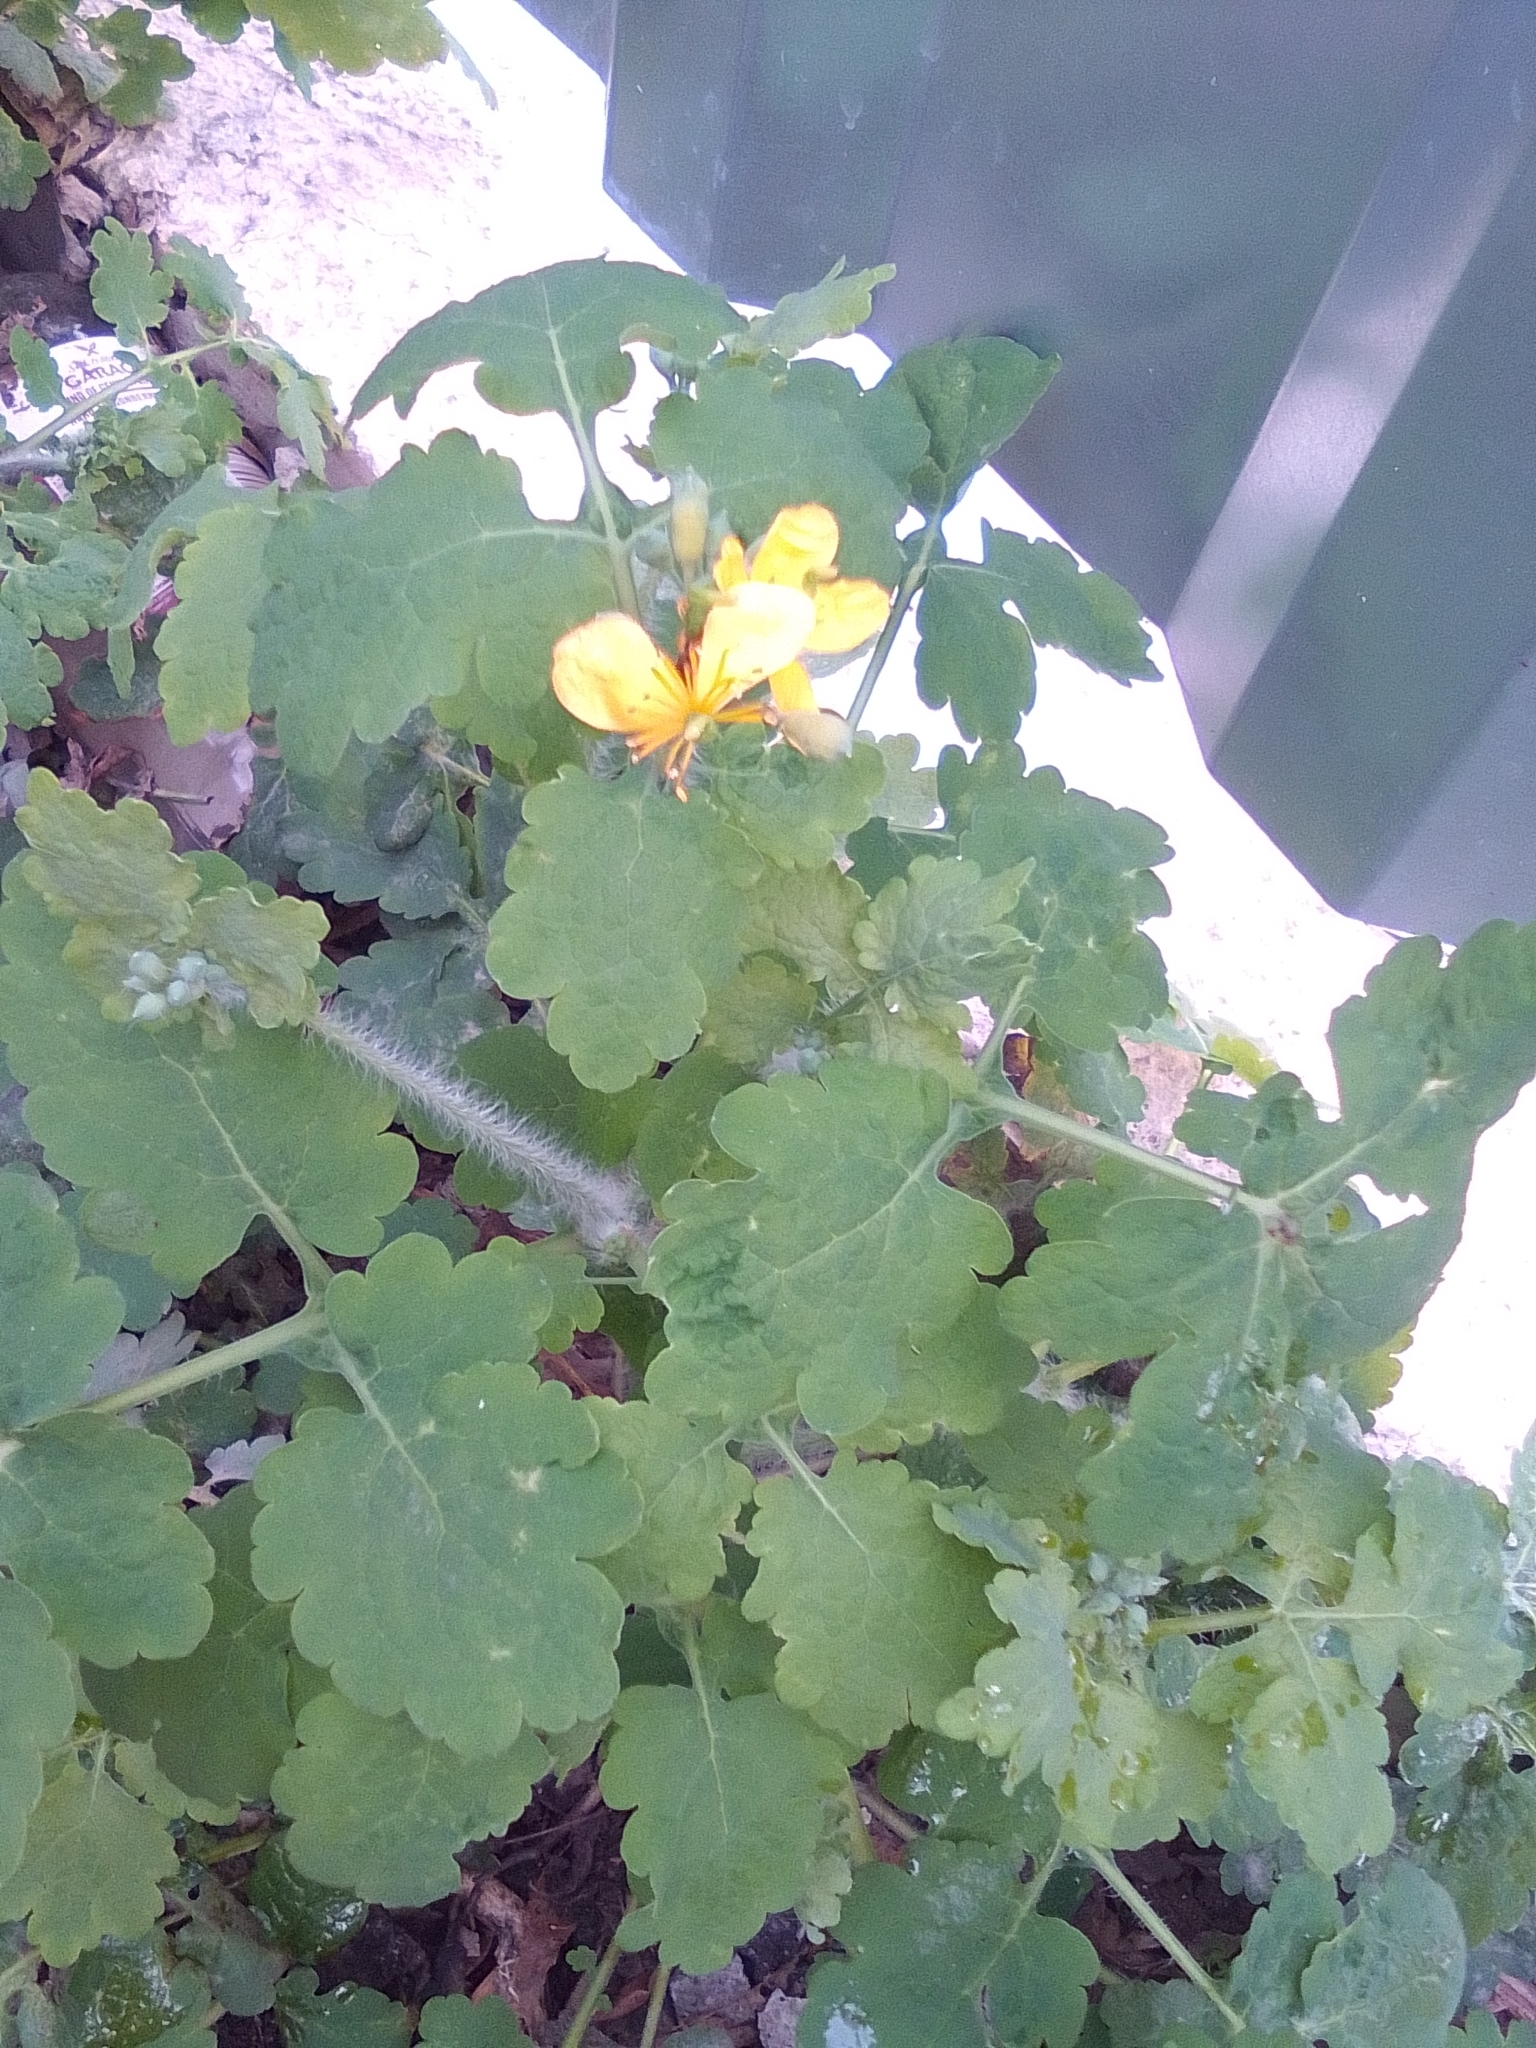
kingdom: Plantae
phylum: Tracheophyta
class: Magnoliopsida
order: Ranunculales
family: Papaveraceae
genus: Chelidonium
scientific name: Chelidonium majus
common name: Greater celandine
